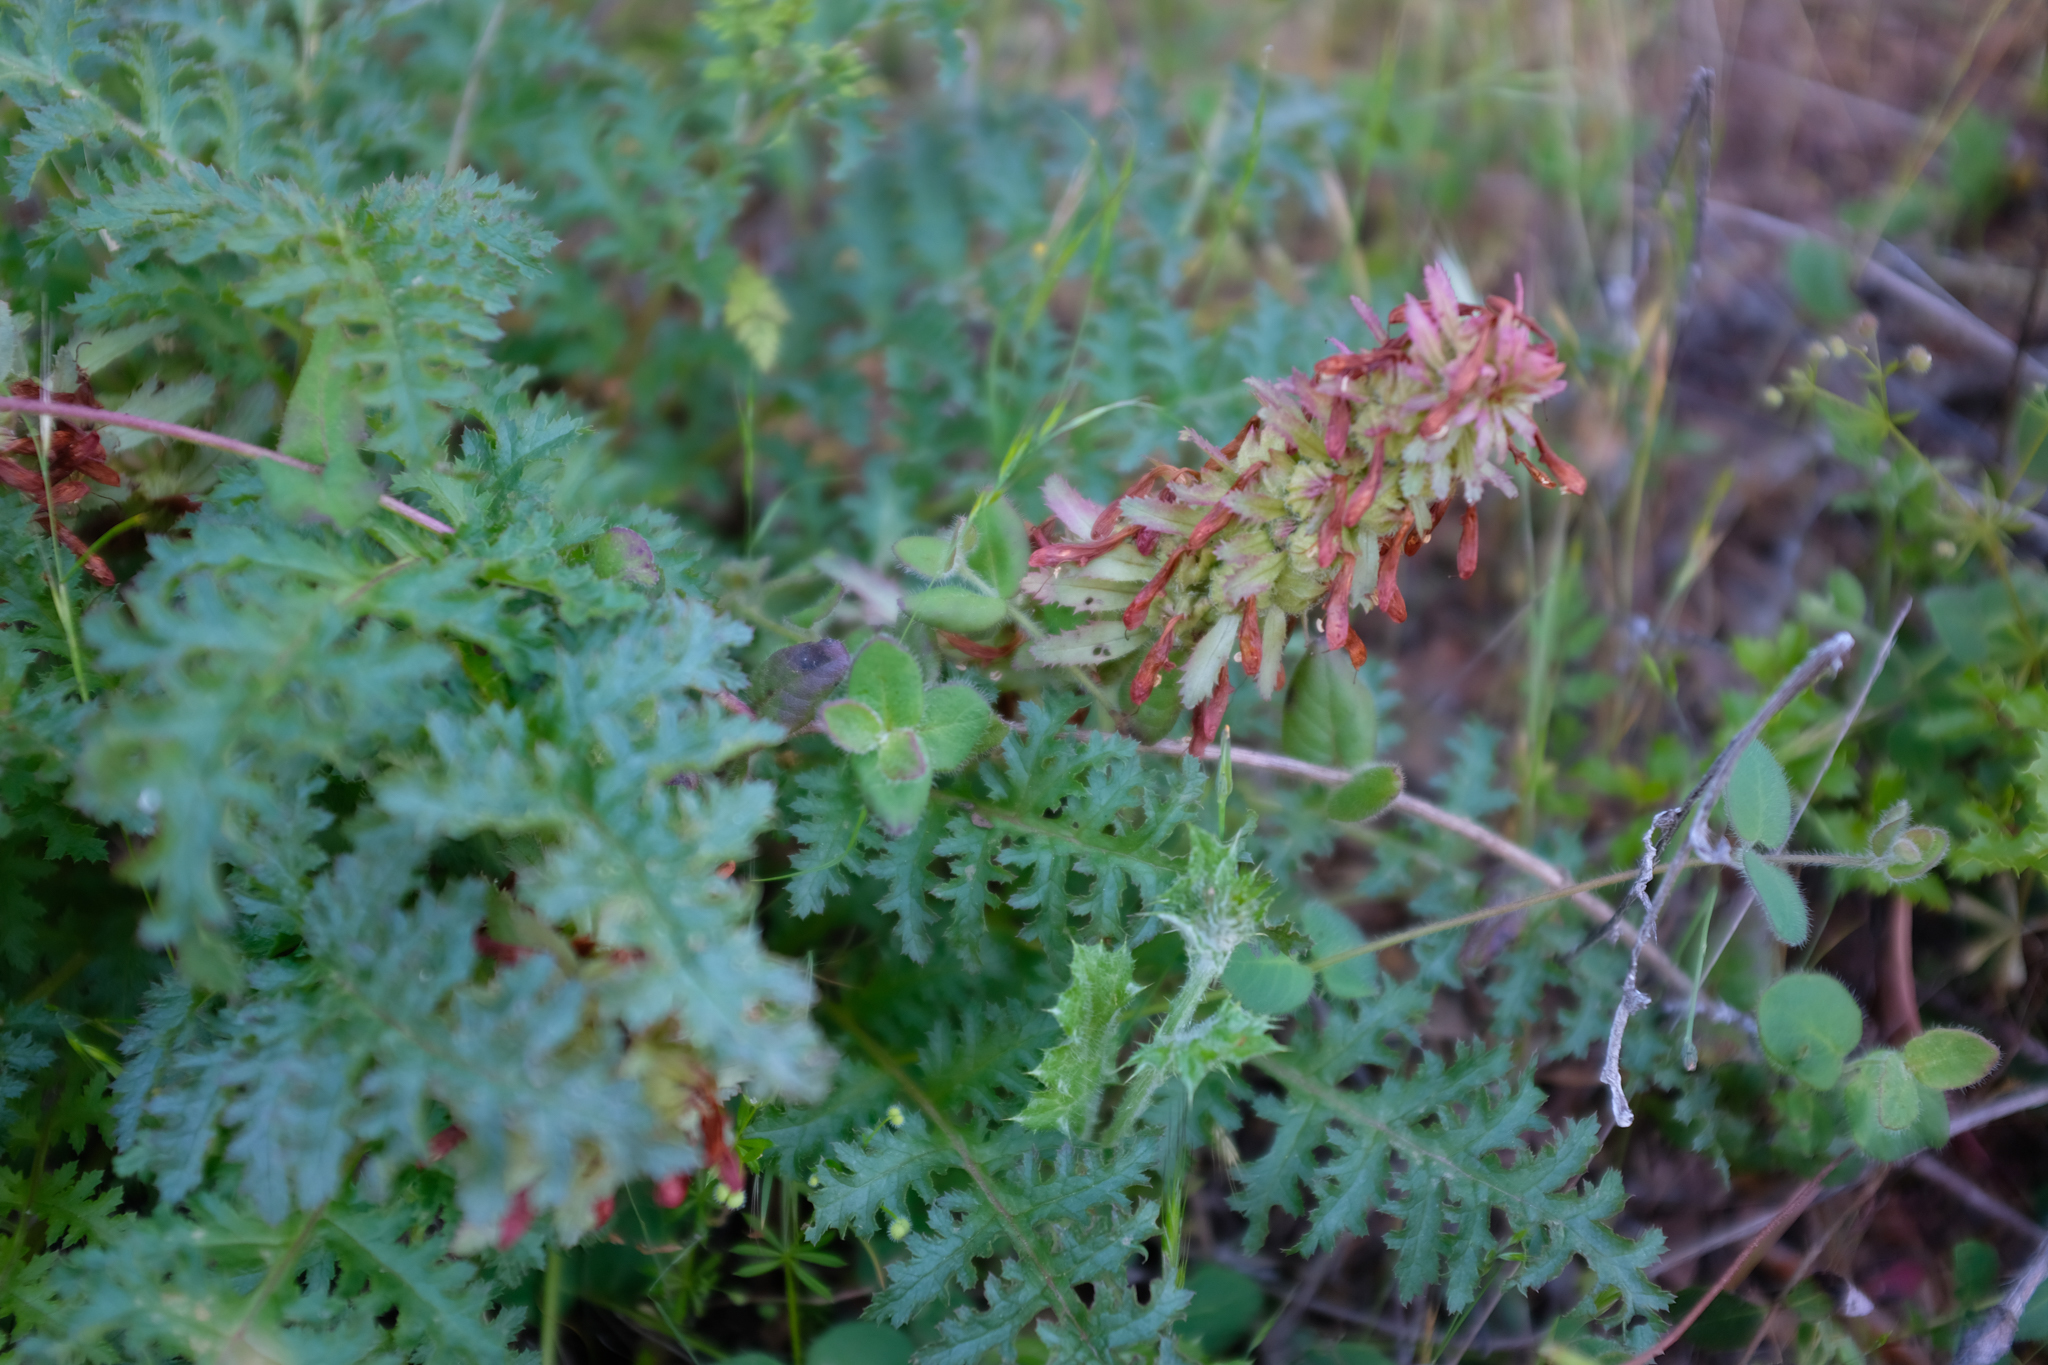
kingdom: Plantae
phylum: Tracheophyta
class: Magnoliopsida
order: Lamiales
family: Orobanchaceae
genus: Pedicularis
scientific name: Pedicularis densiflora
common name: Indian warrior
